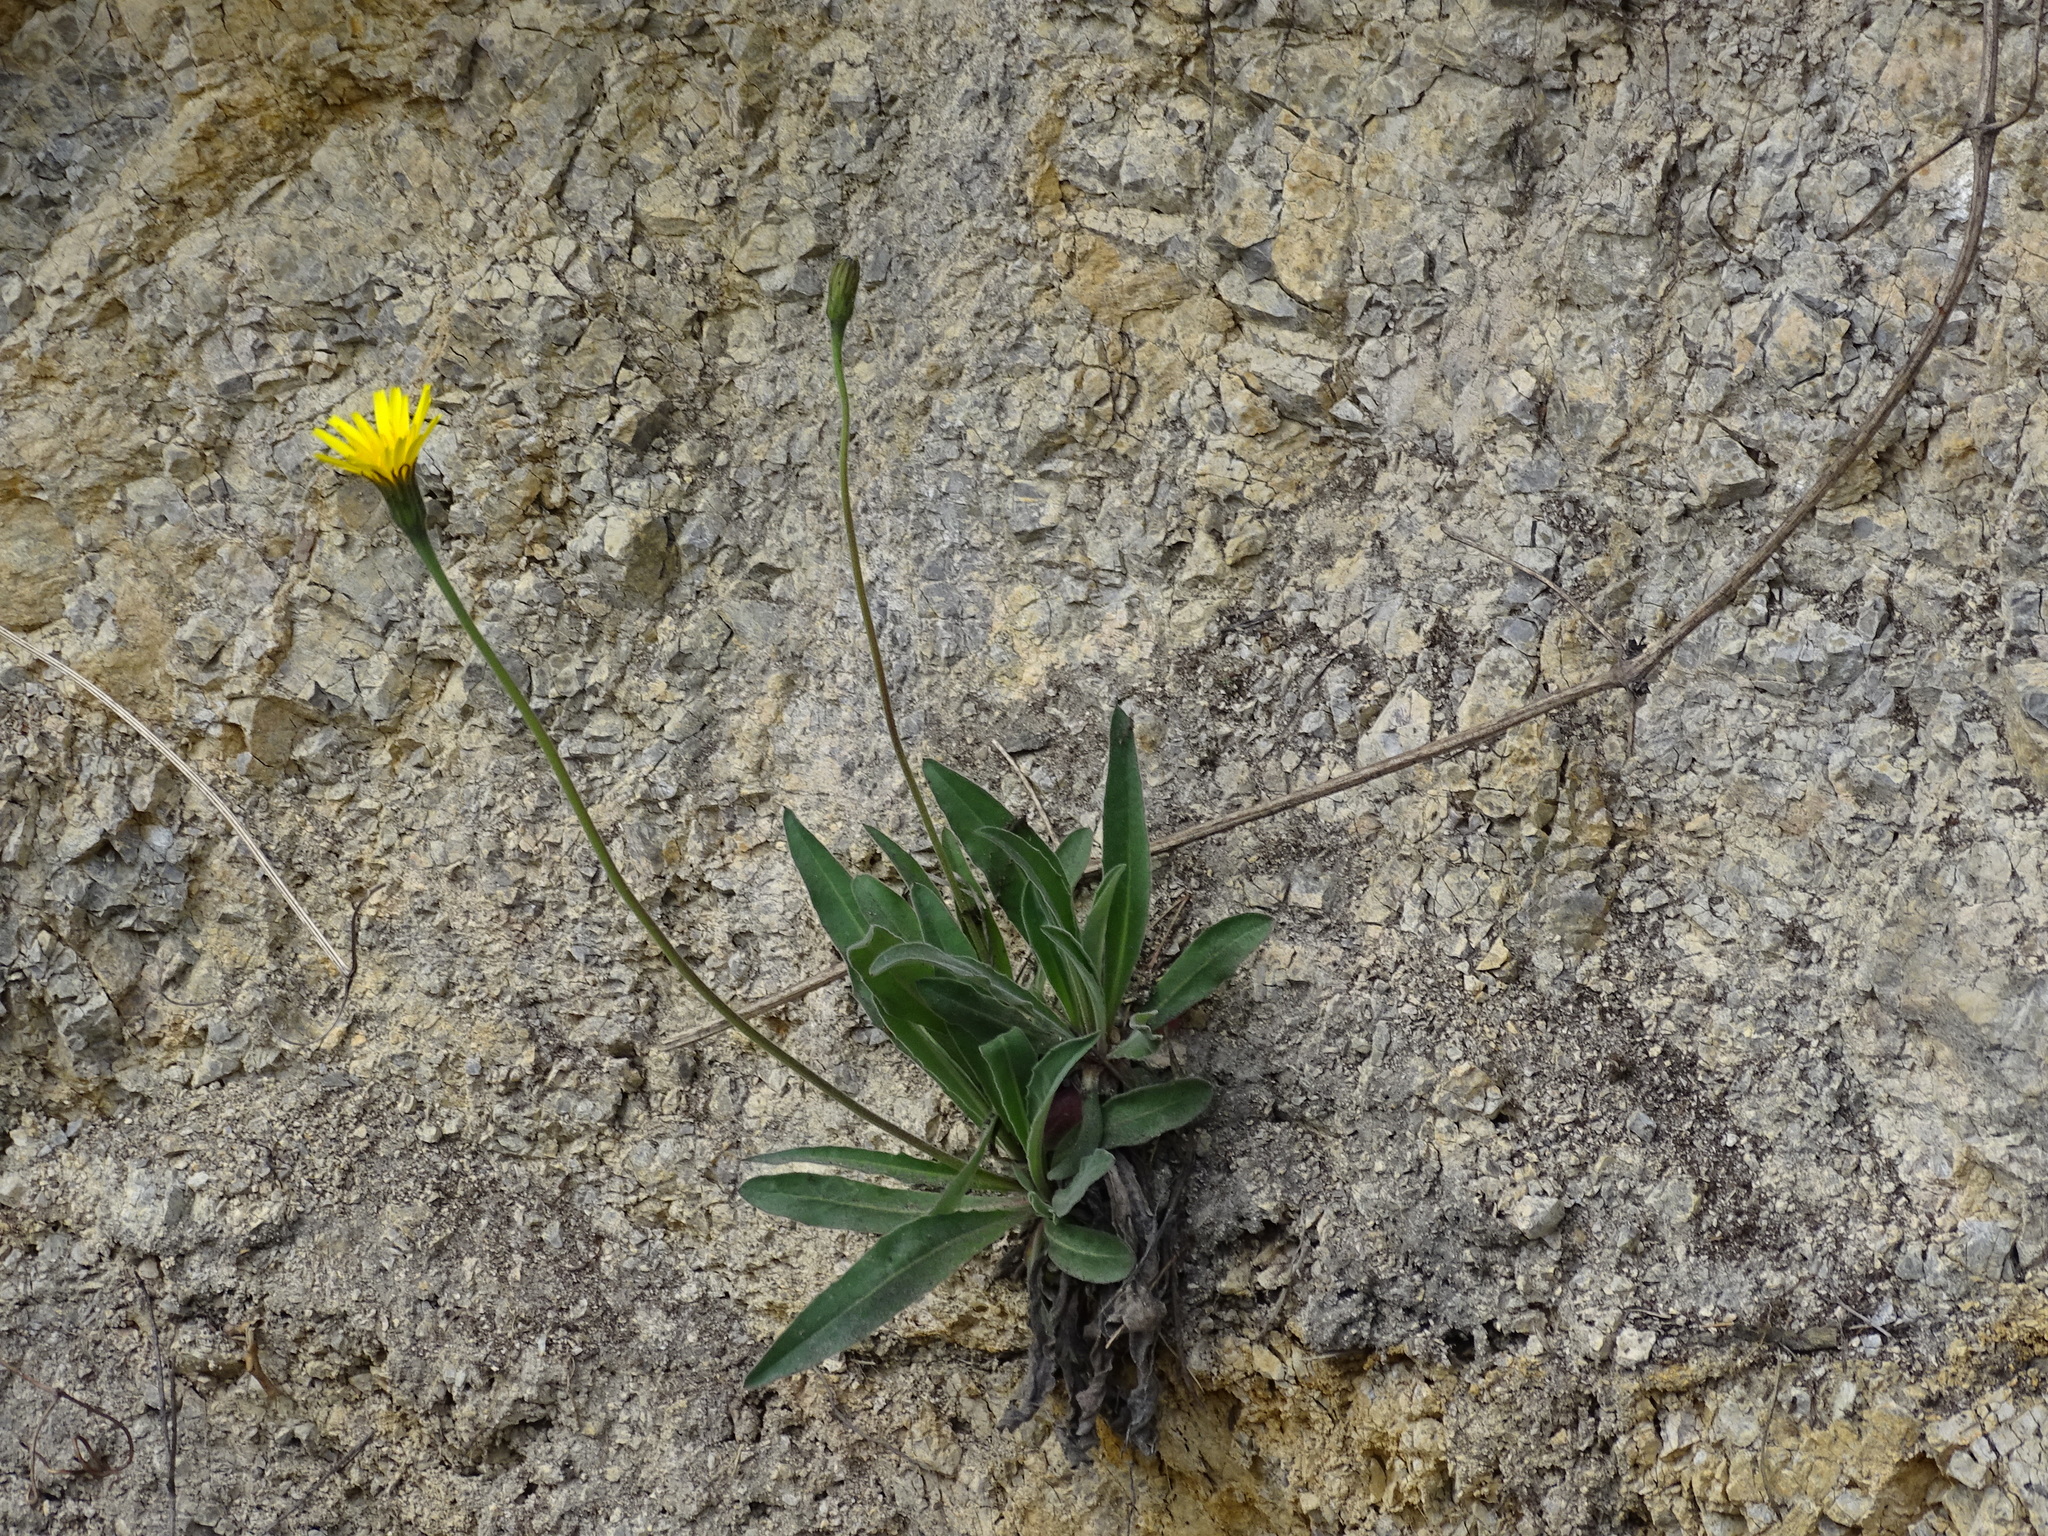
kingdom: Plantae
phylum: Tracheophyta
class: Magnoliopsida
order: Asterales
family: Asteraceae
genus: Leontodon
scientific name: Leontodon incanus
